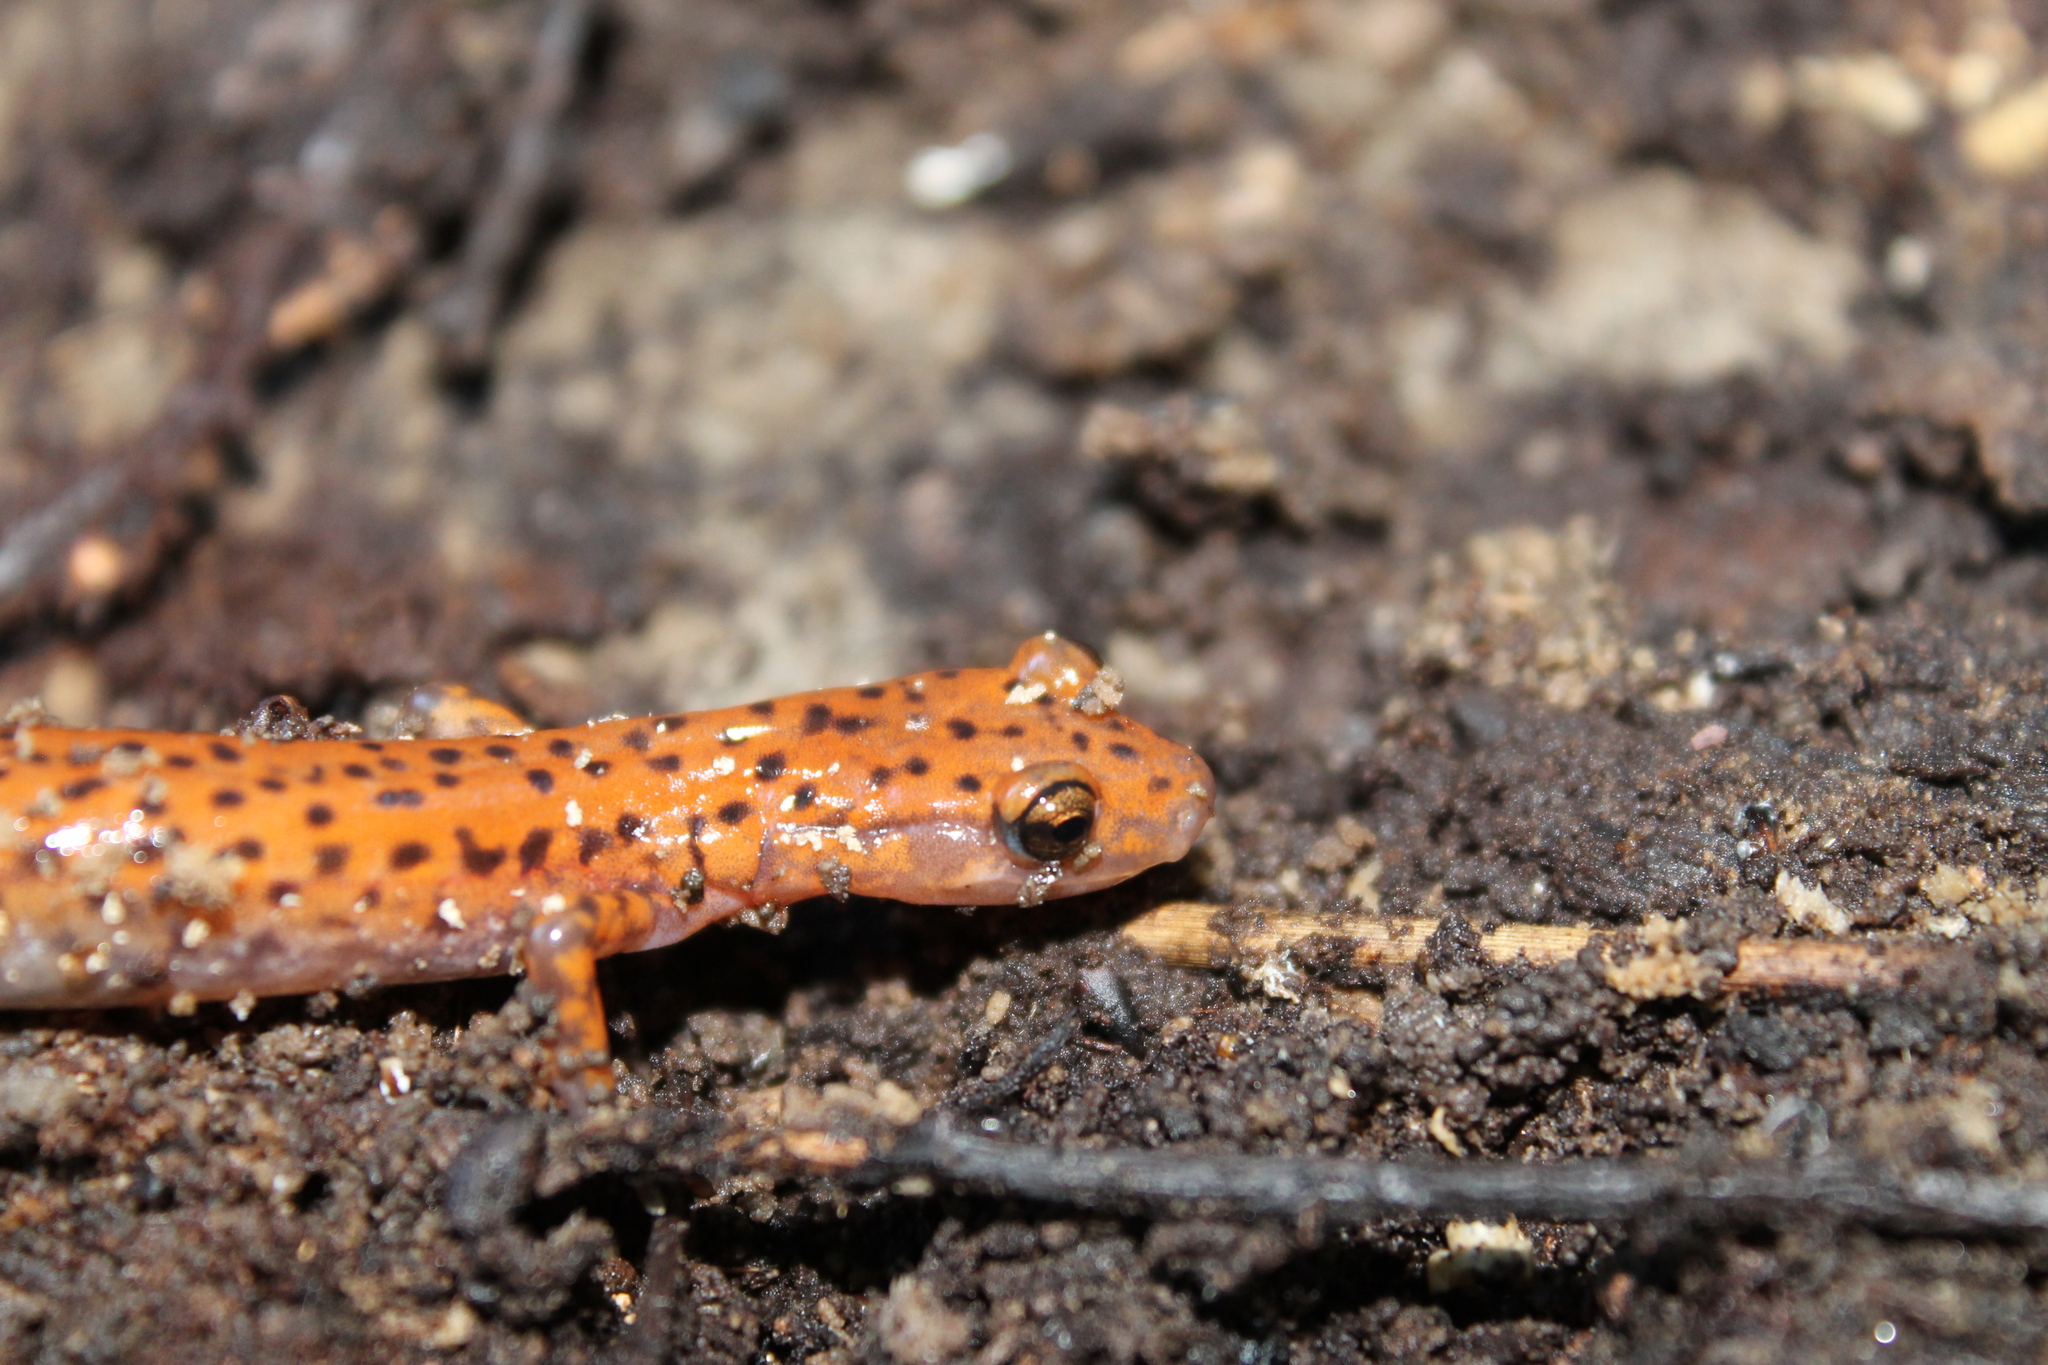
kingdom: Animalia
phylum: Chordata
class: Amphibia
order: Caudata
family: Plethodontidae
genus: Eurycea
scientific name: Eurycea lucifuga
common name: Cave salamander
